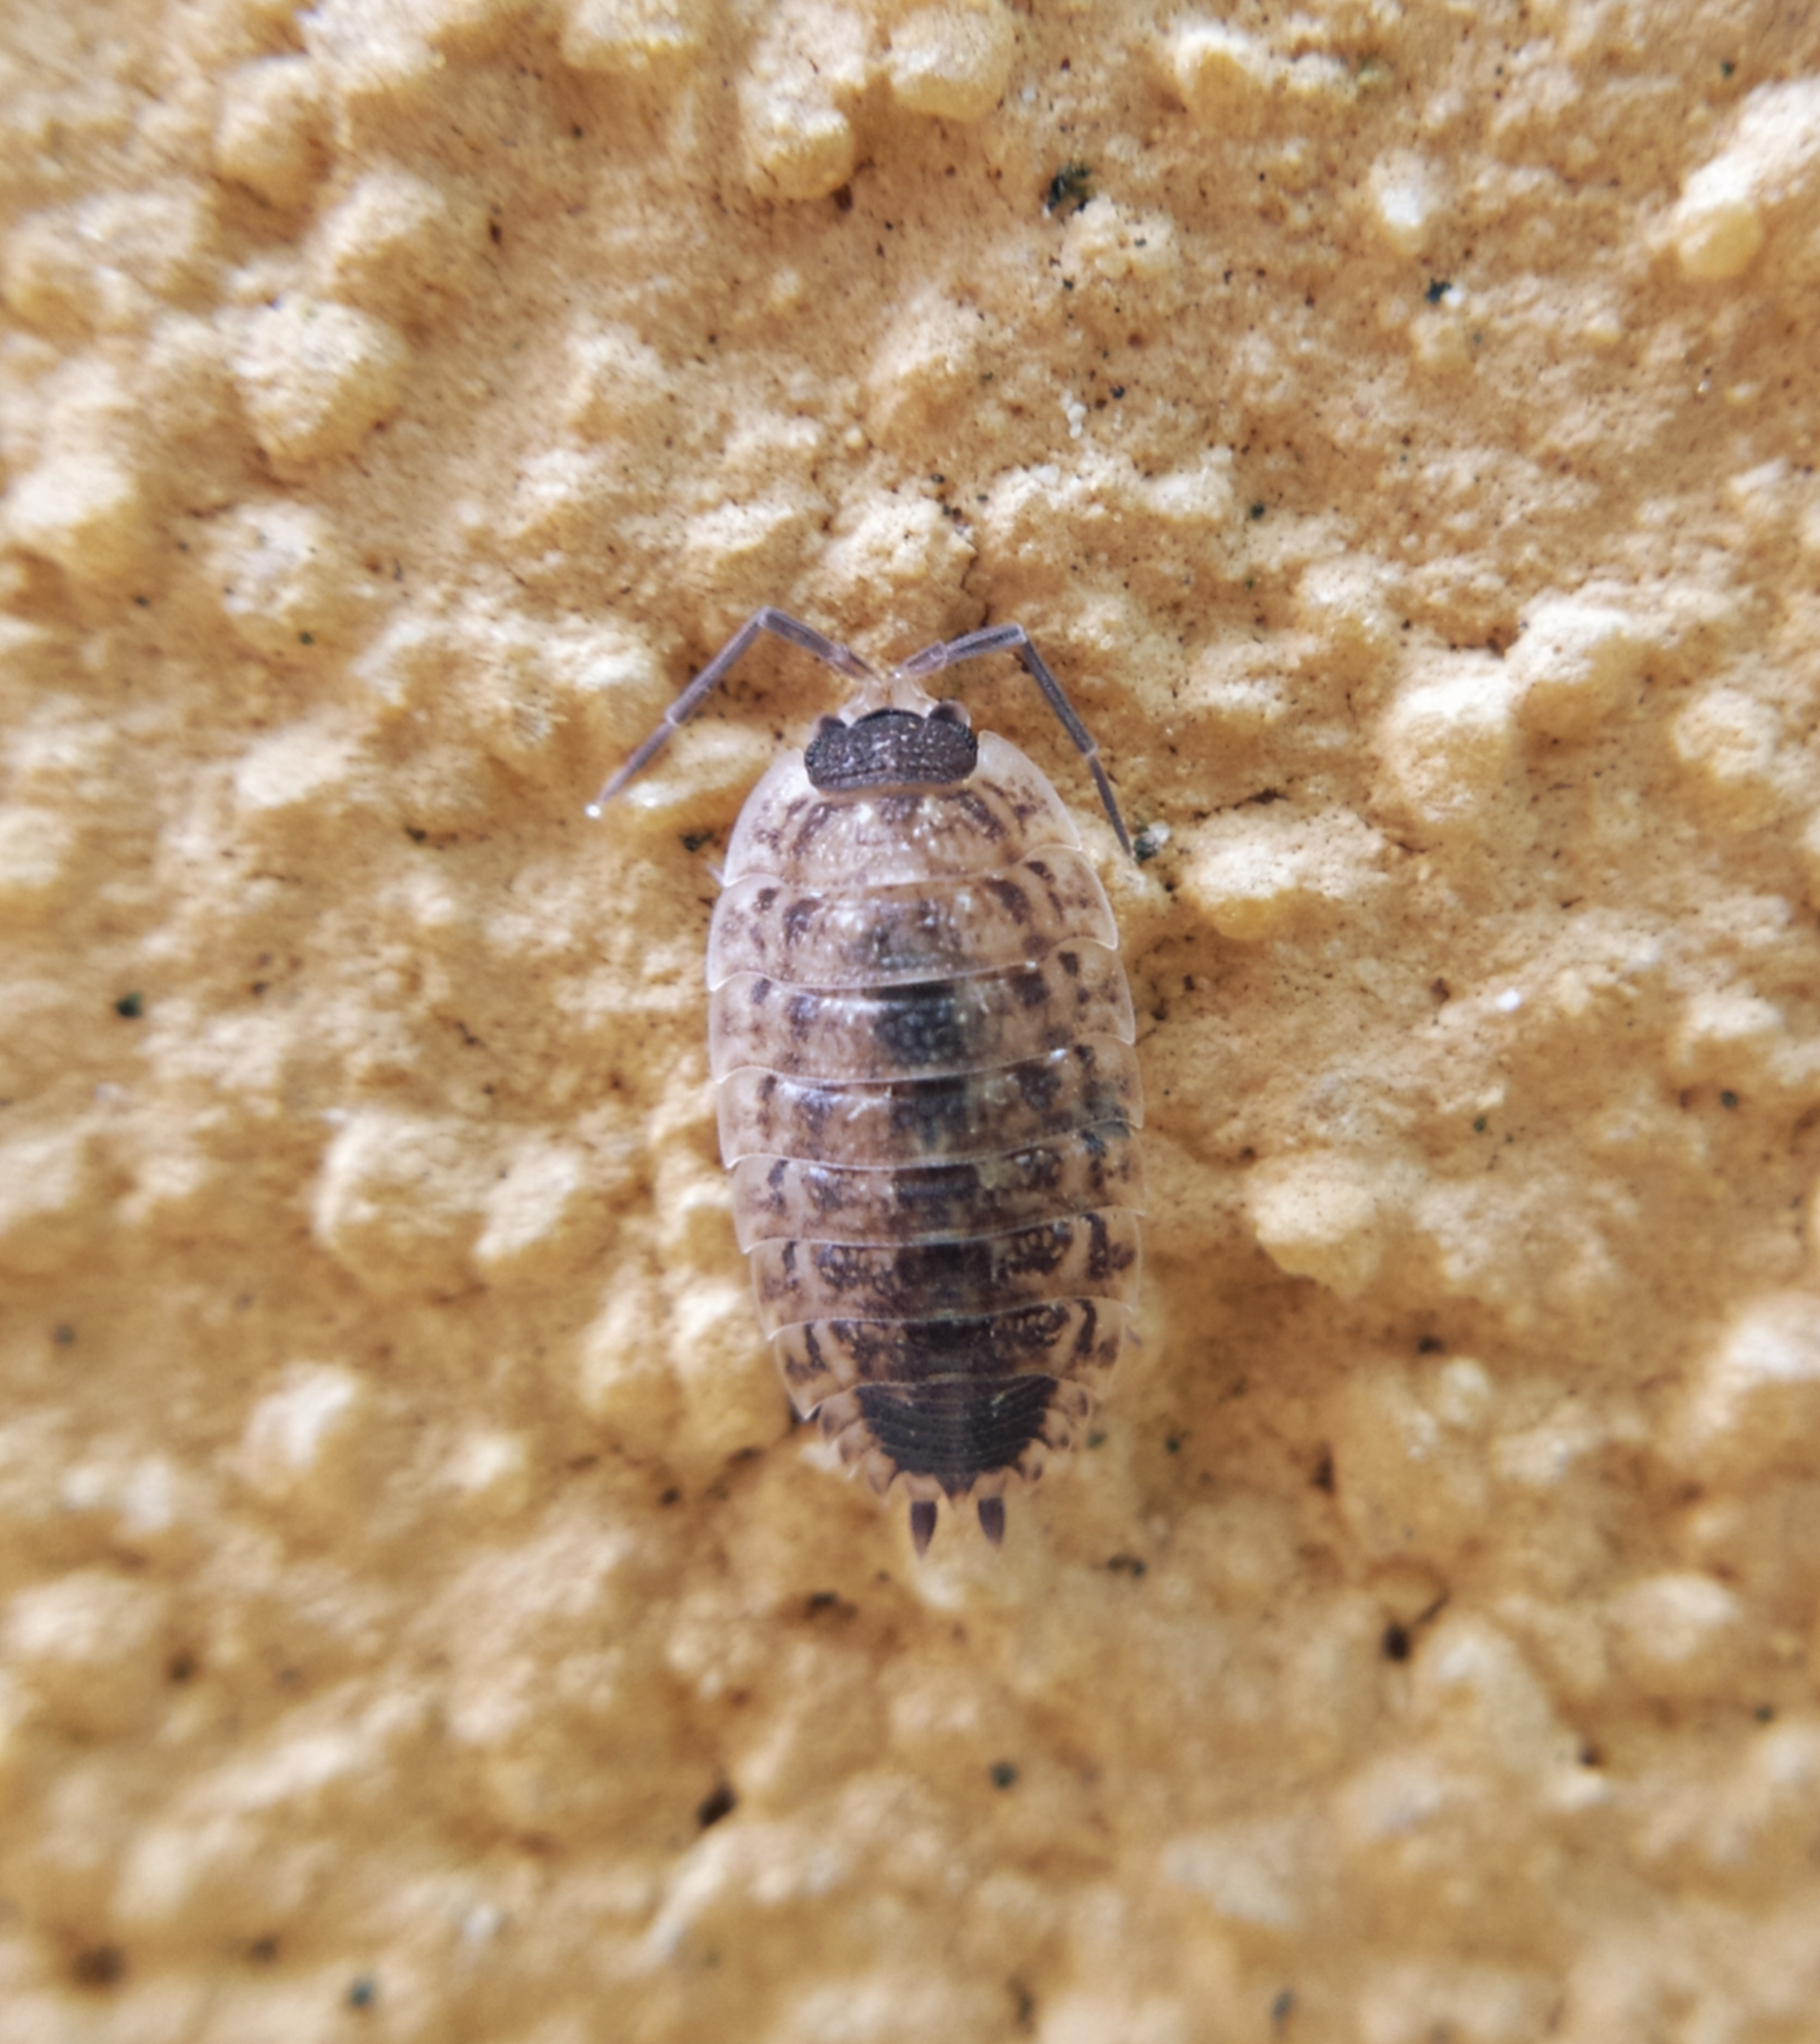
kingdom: Animalia
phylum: Arthropoda
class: Malacostraca
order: Isopoda
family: Porcellionidae
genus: Porcellio
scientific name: Porcellio spinicornis
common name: Painted woodlouse
